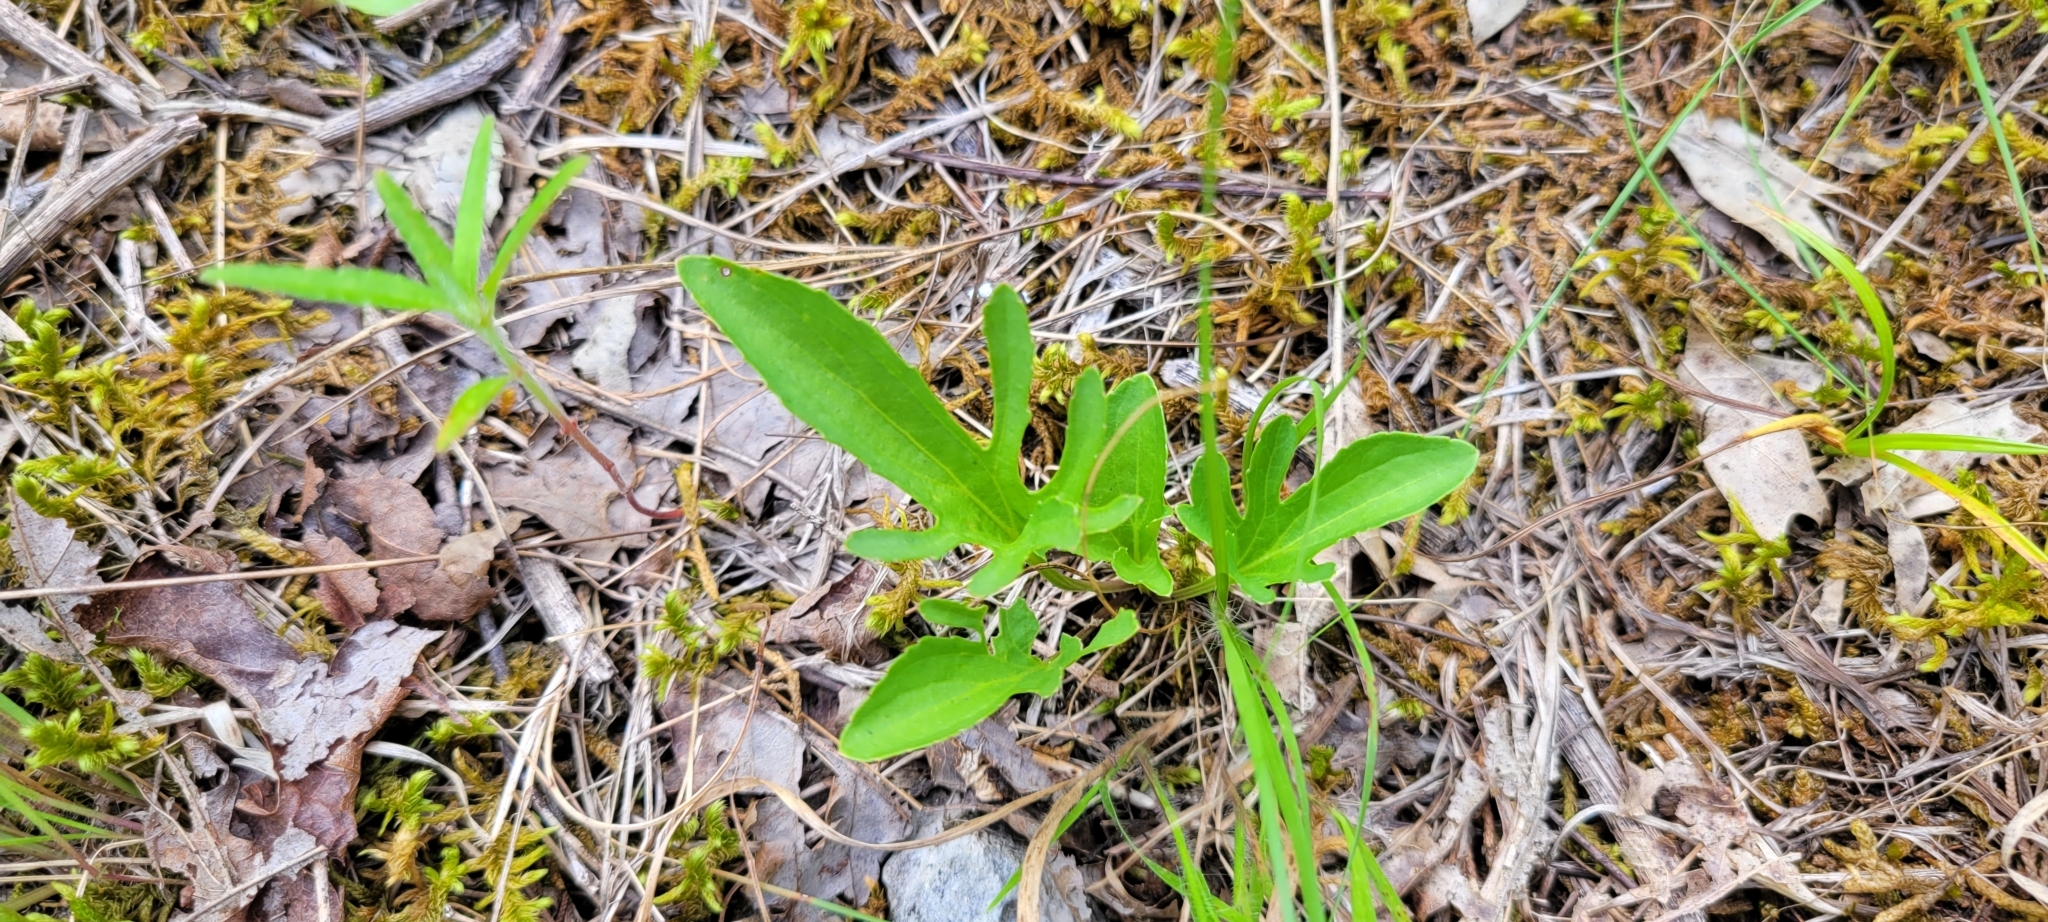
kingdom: Plantae
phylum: Tracheophyta
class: Magnoliopsida
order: Malpighiales
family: Violaceae
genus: Viola
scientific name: Viola egglestonii
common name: Glade violet
